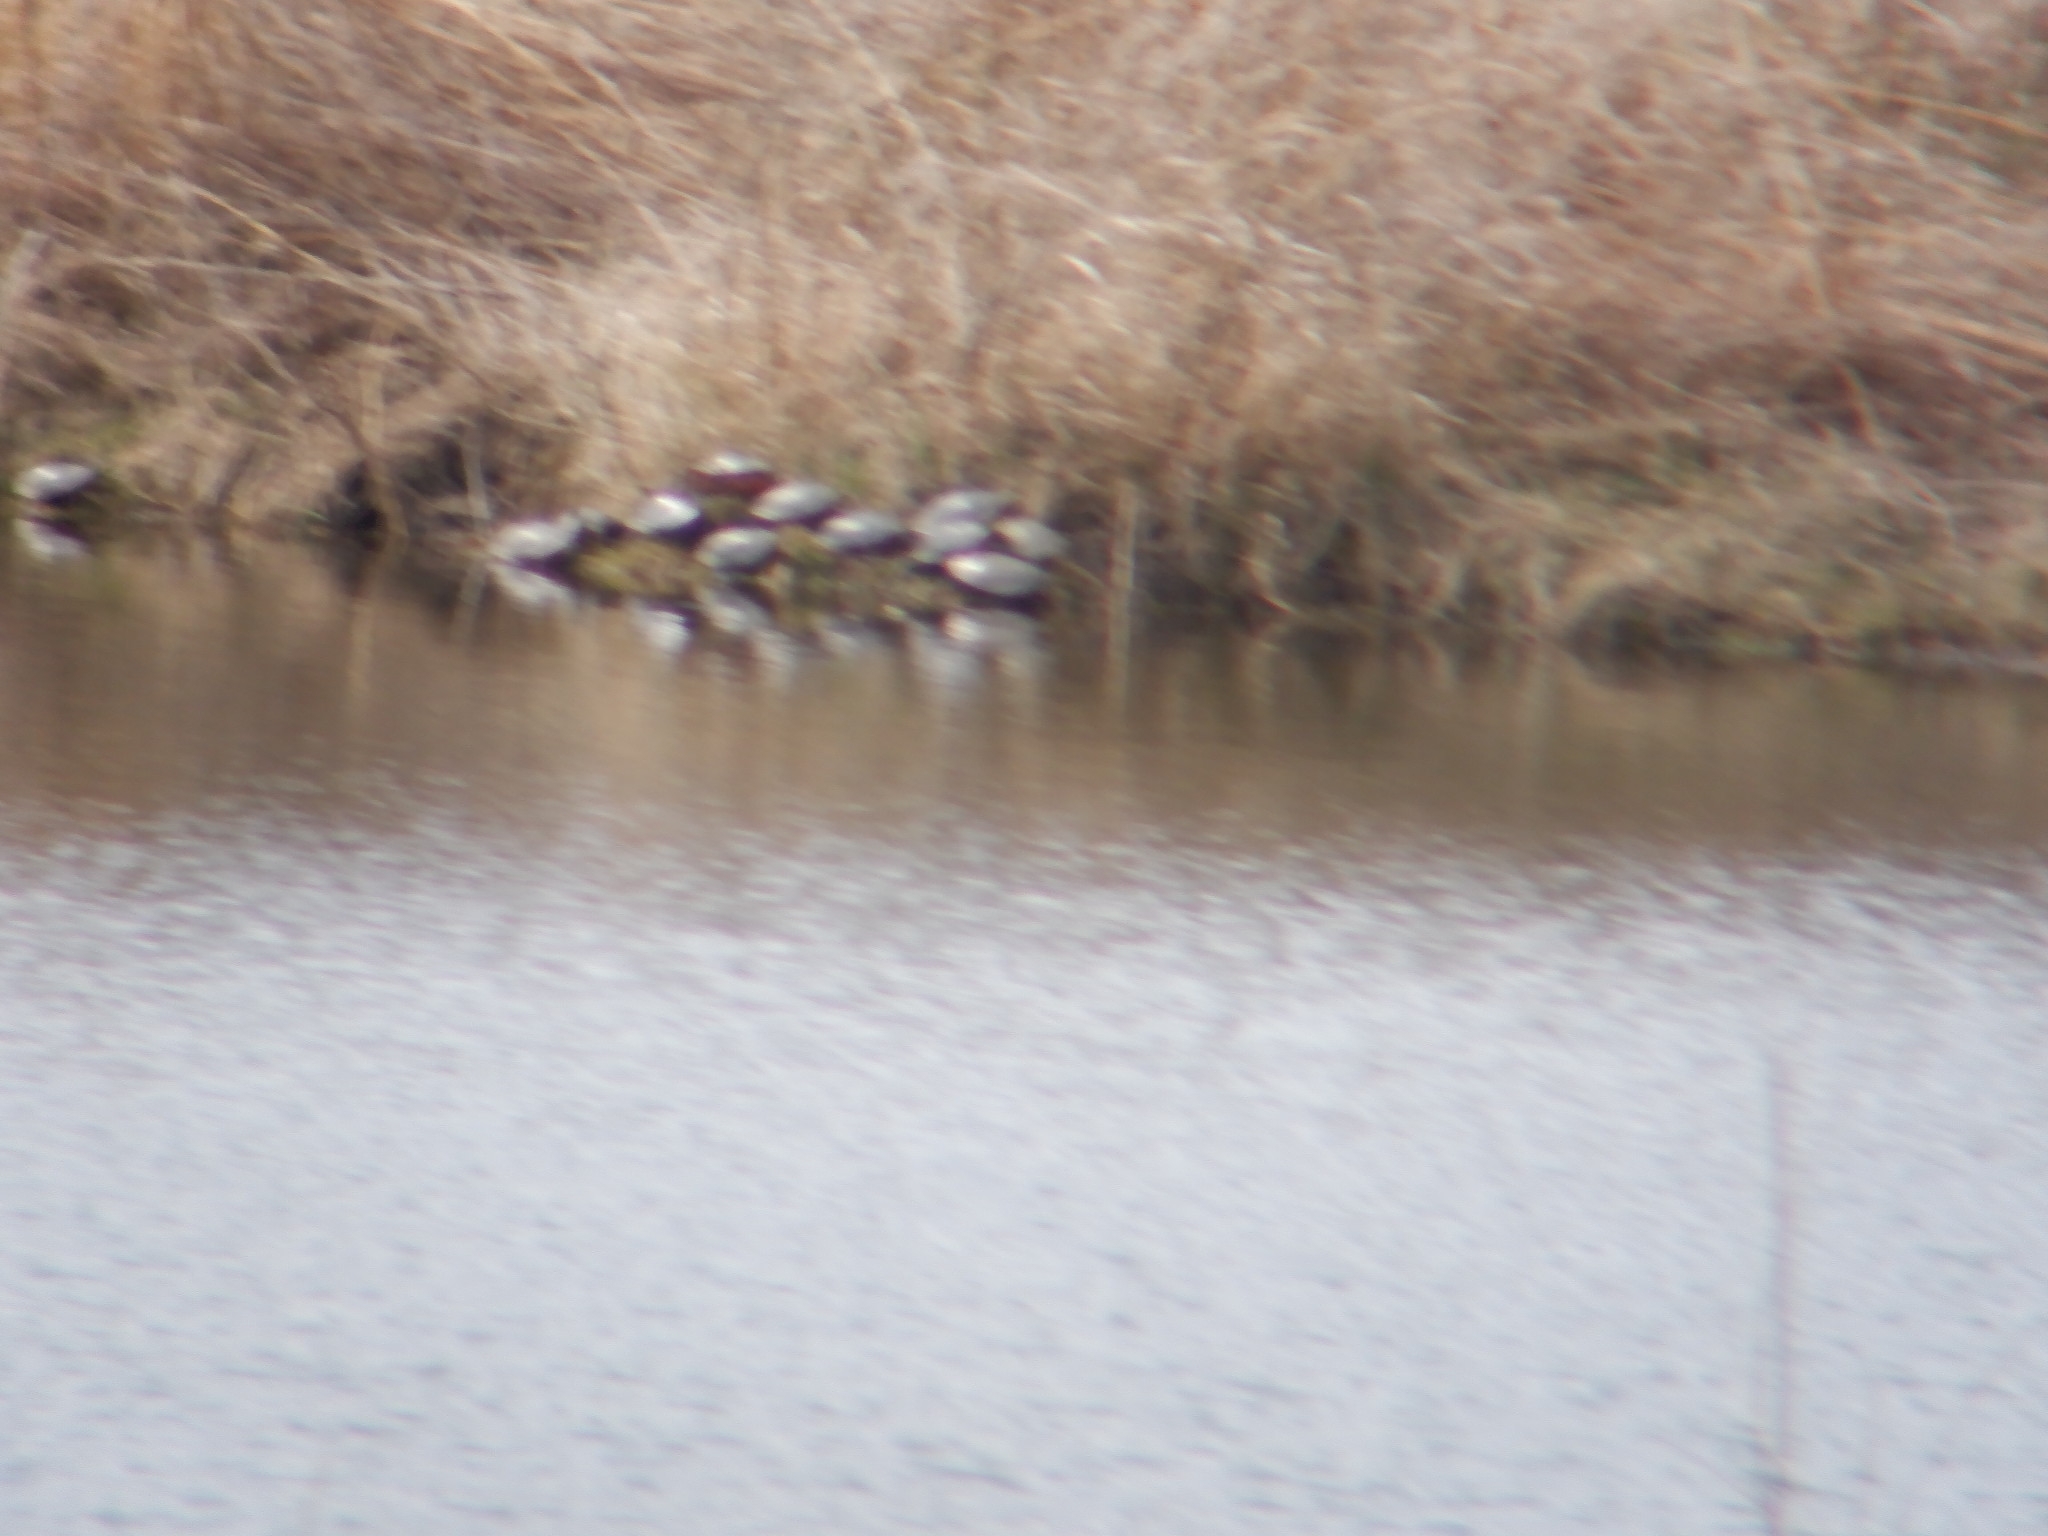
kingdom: Animalia
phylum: Chordata
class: Testudines
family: Emydidae
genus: Chrysemys
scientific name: Chrysemys picta
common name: Painted turtle
